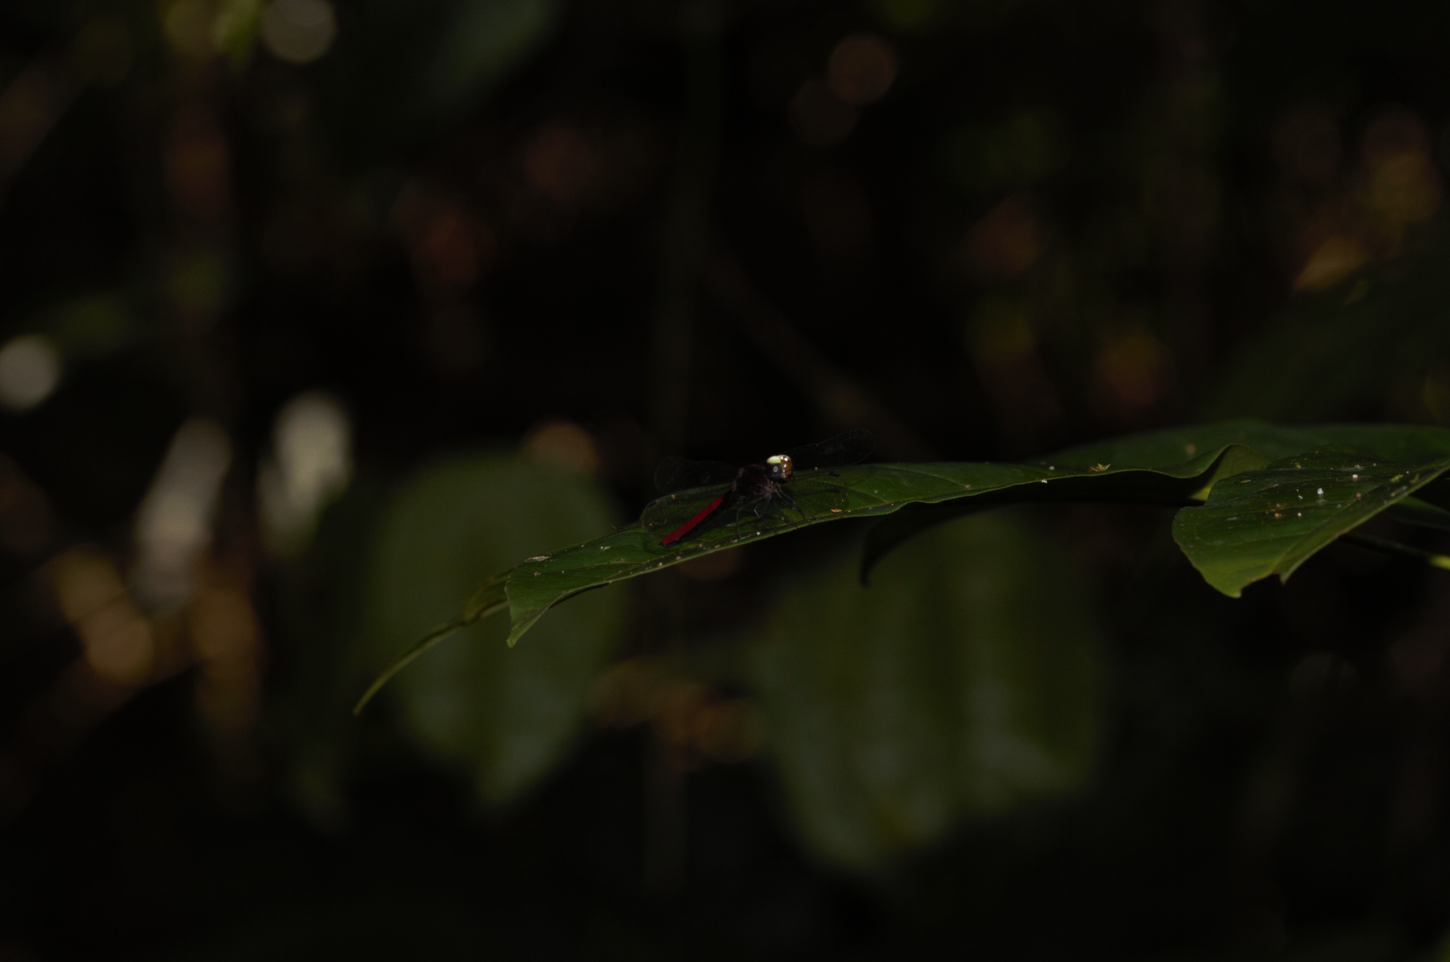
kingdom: Animalia
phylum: Arthropoda
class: Insecta
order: Odonata
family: Libellulidae
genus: Fylgia
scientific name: Fylgia amazonica
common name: White-eyed skimmer
